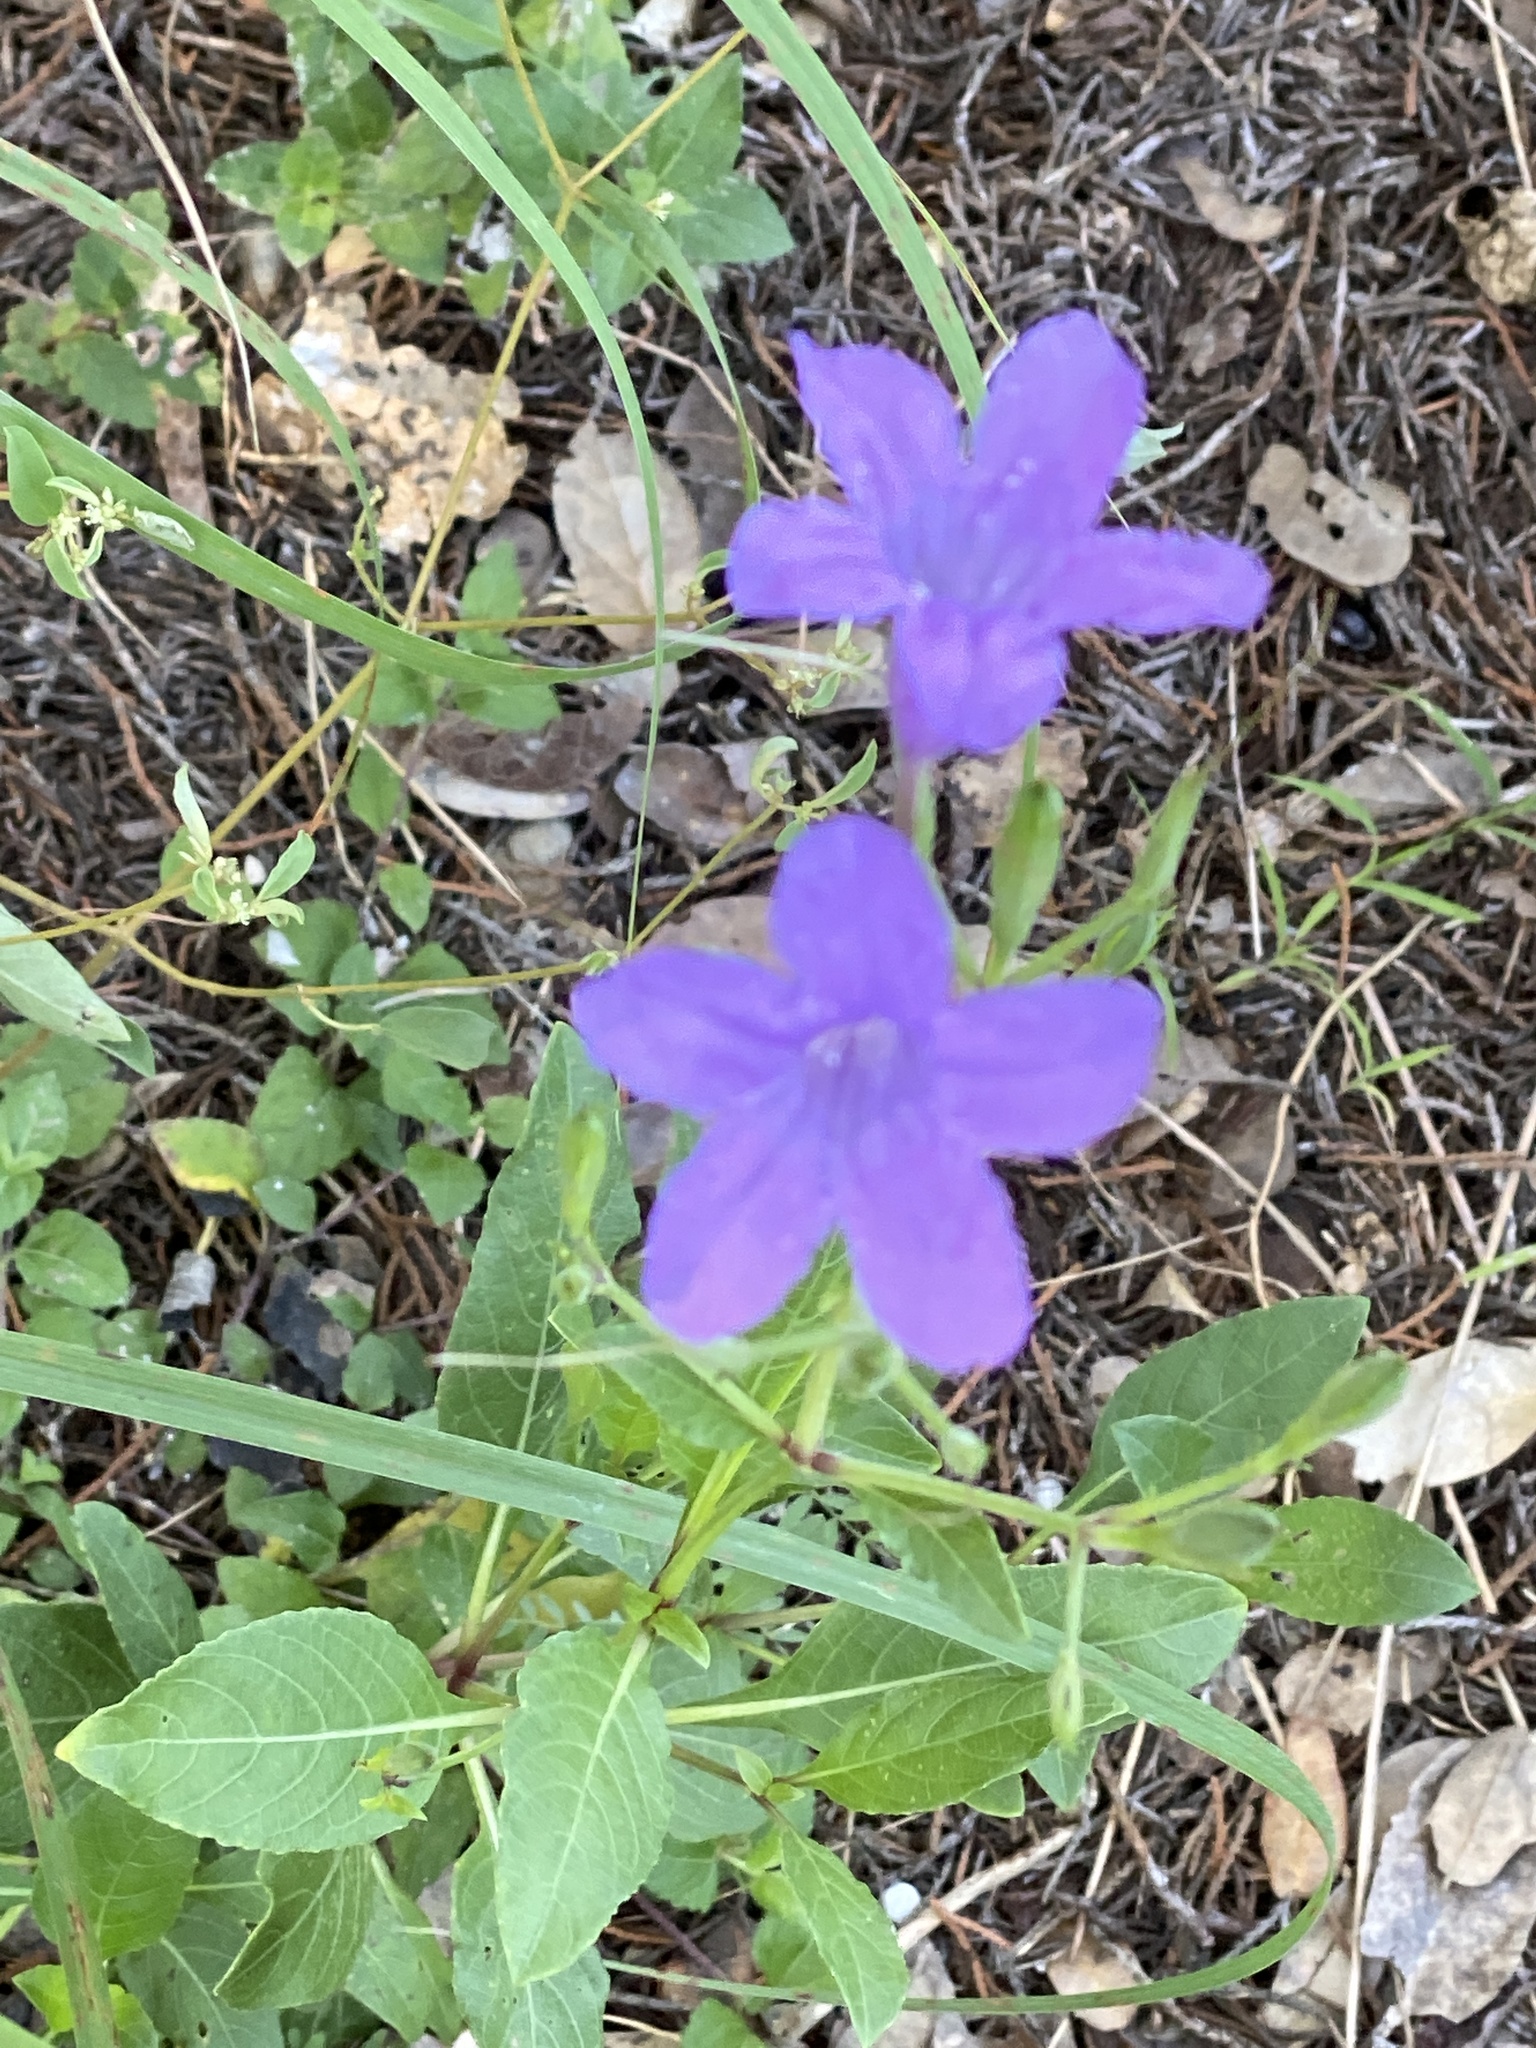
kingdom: Plantae
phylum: Tracheophyta
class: Magnoliopsida
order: Lamiales
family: Acanthaceae
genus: Ruellia
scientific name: Ruellia ciliatiflora
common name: Hairyflower wild petunia
